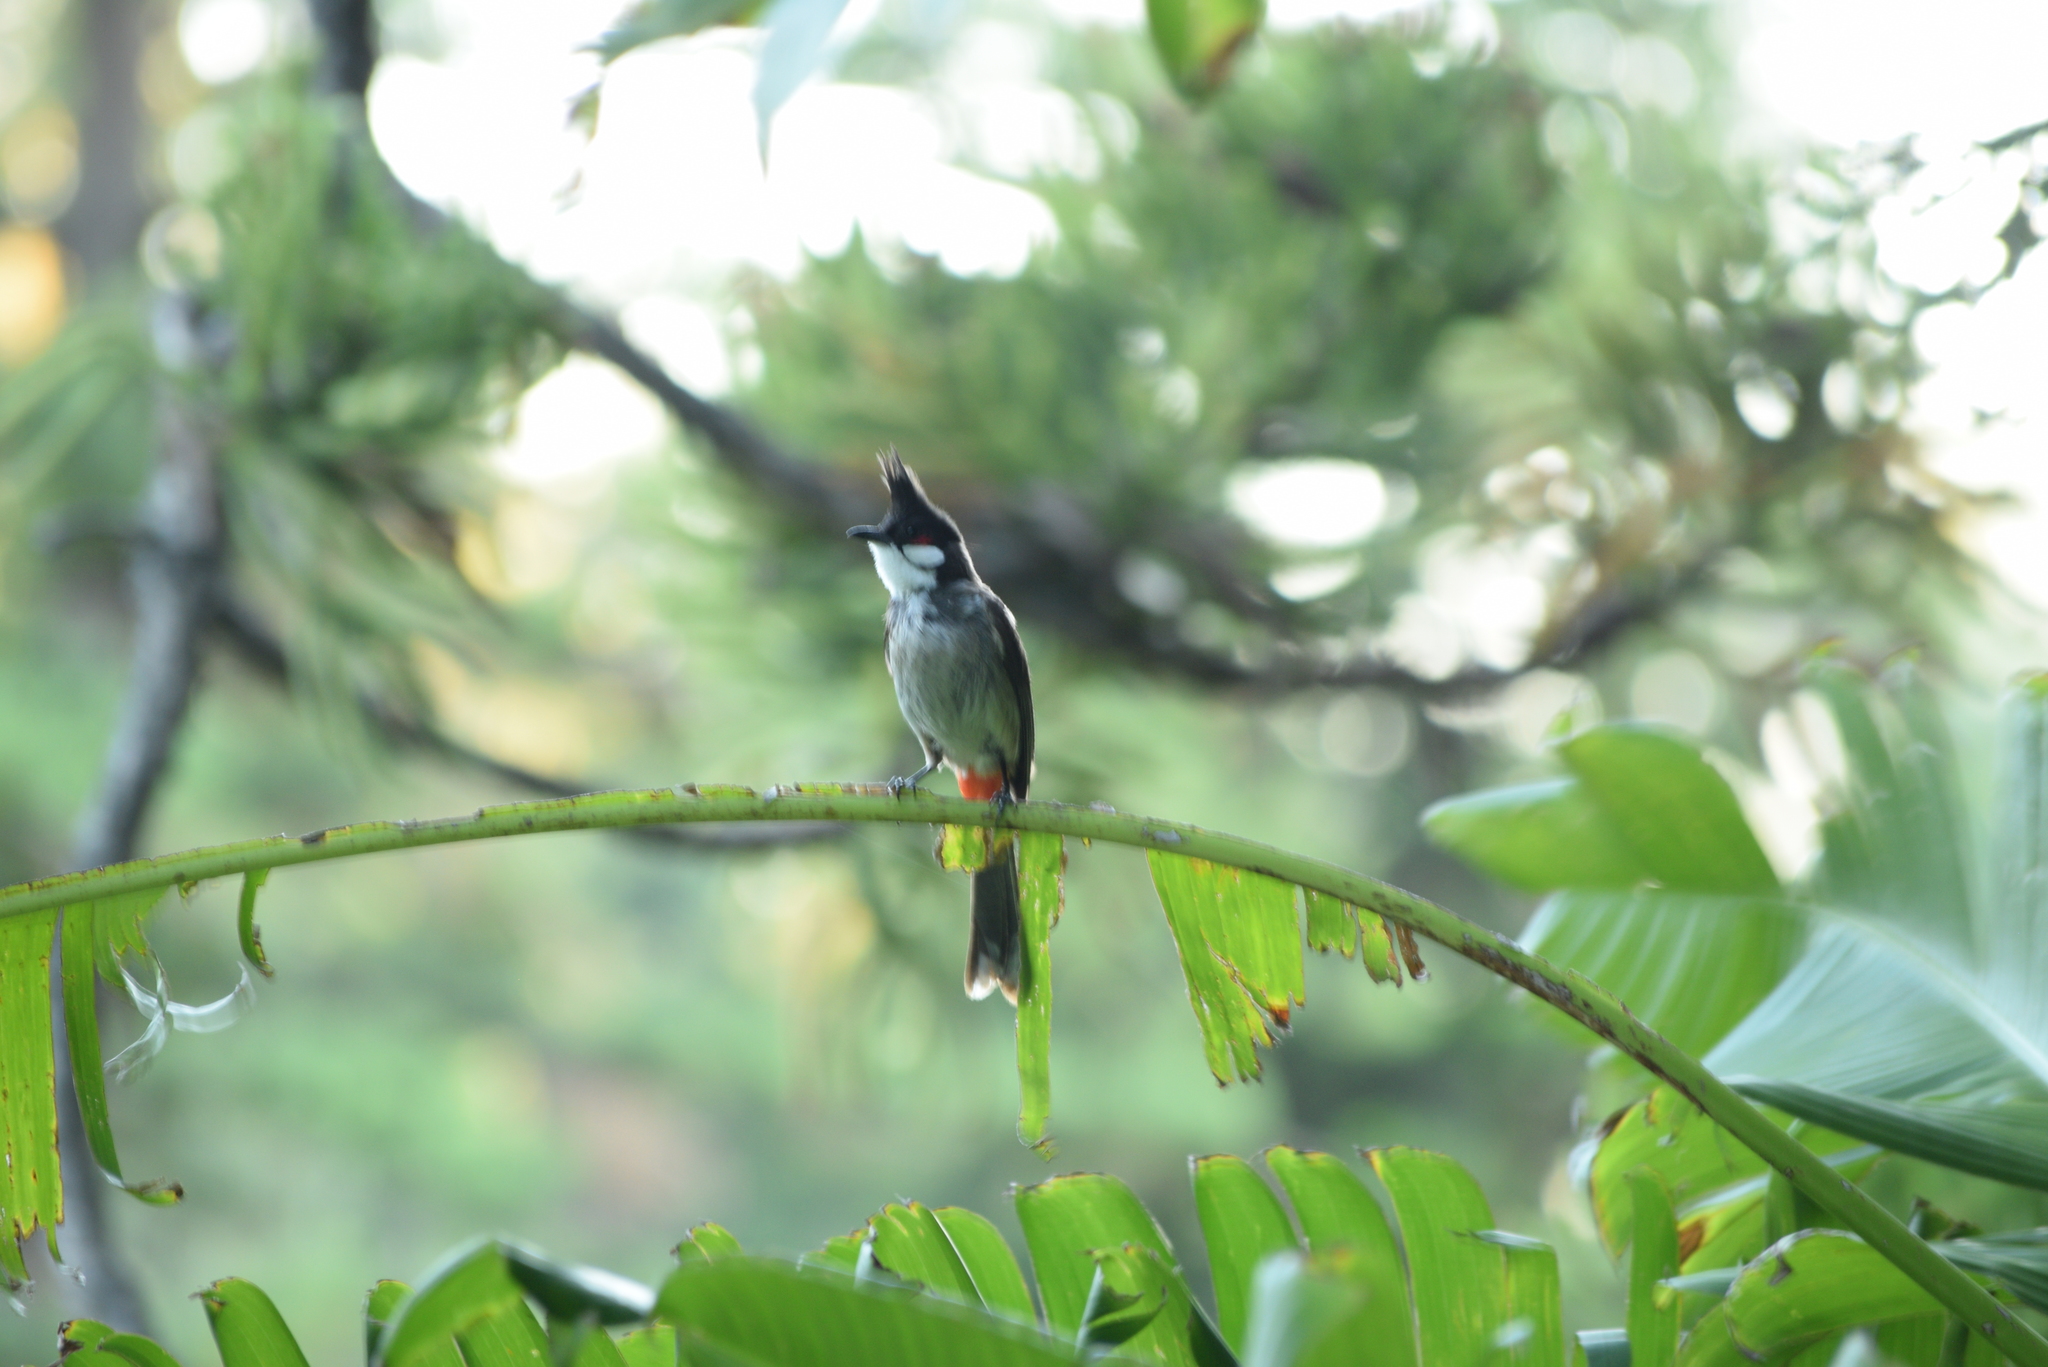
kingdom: Animalia
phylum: Chordata
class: Aves
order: Passeriformes
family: Pycnonotidae
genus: Pycnonotus
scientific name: Pycnonotus jocosus
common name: Red-whiskered bulbul
